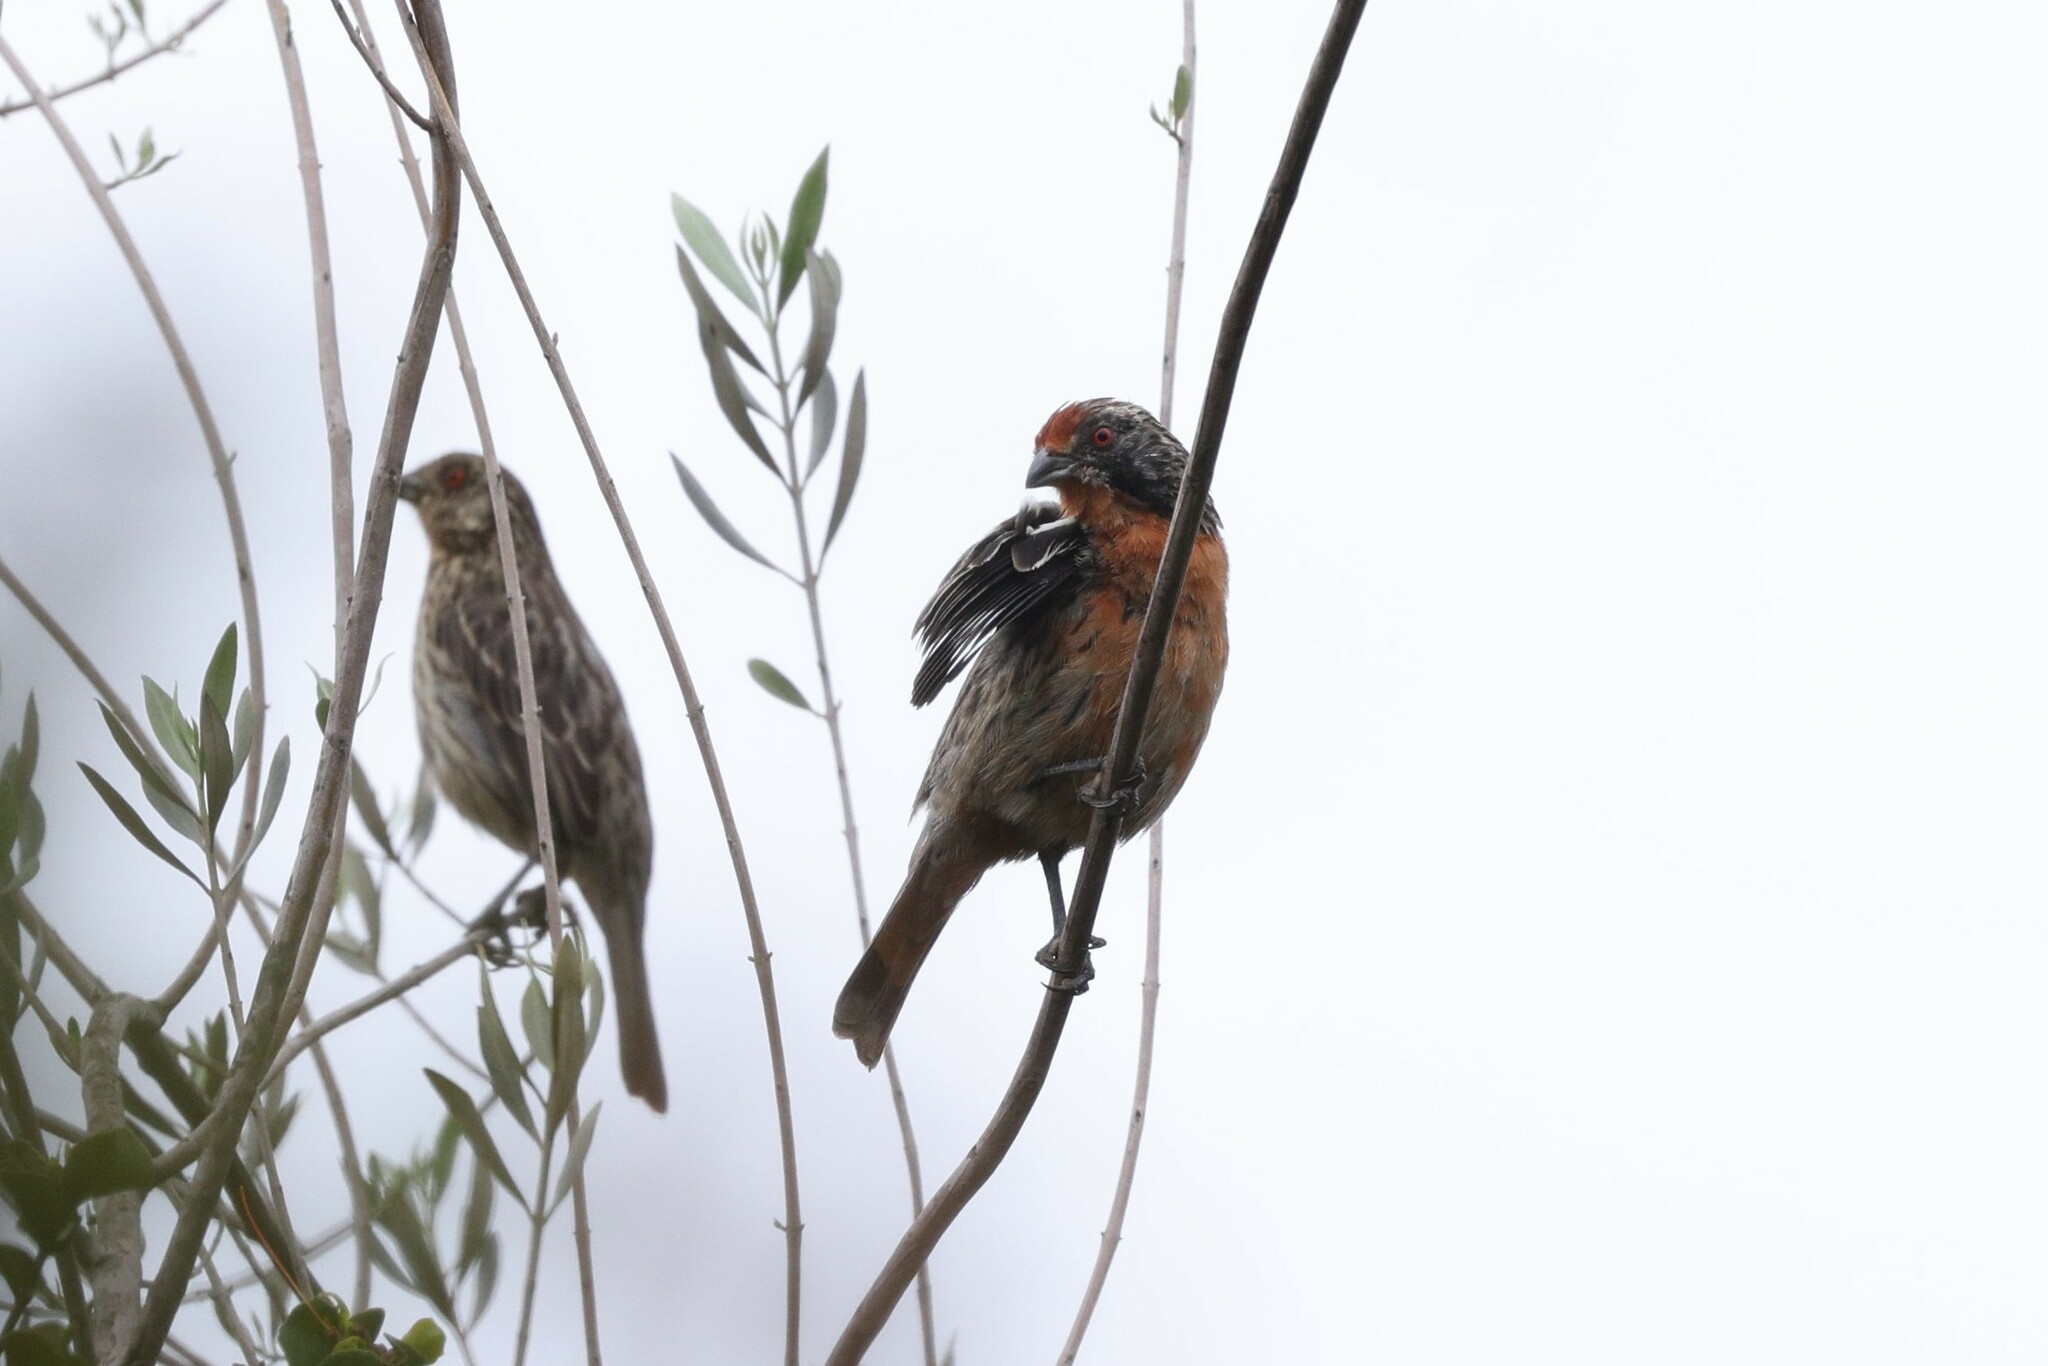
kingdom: Animalia
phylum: Chordata
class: Aves
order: Passeriformes
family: Cotingidae
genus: Phytotoma
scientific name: Phytotoma rara
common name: Rufous-tailed plantcutter
